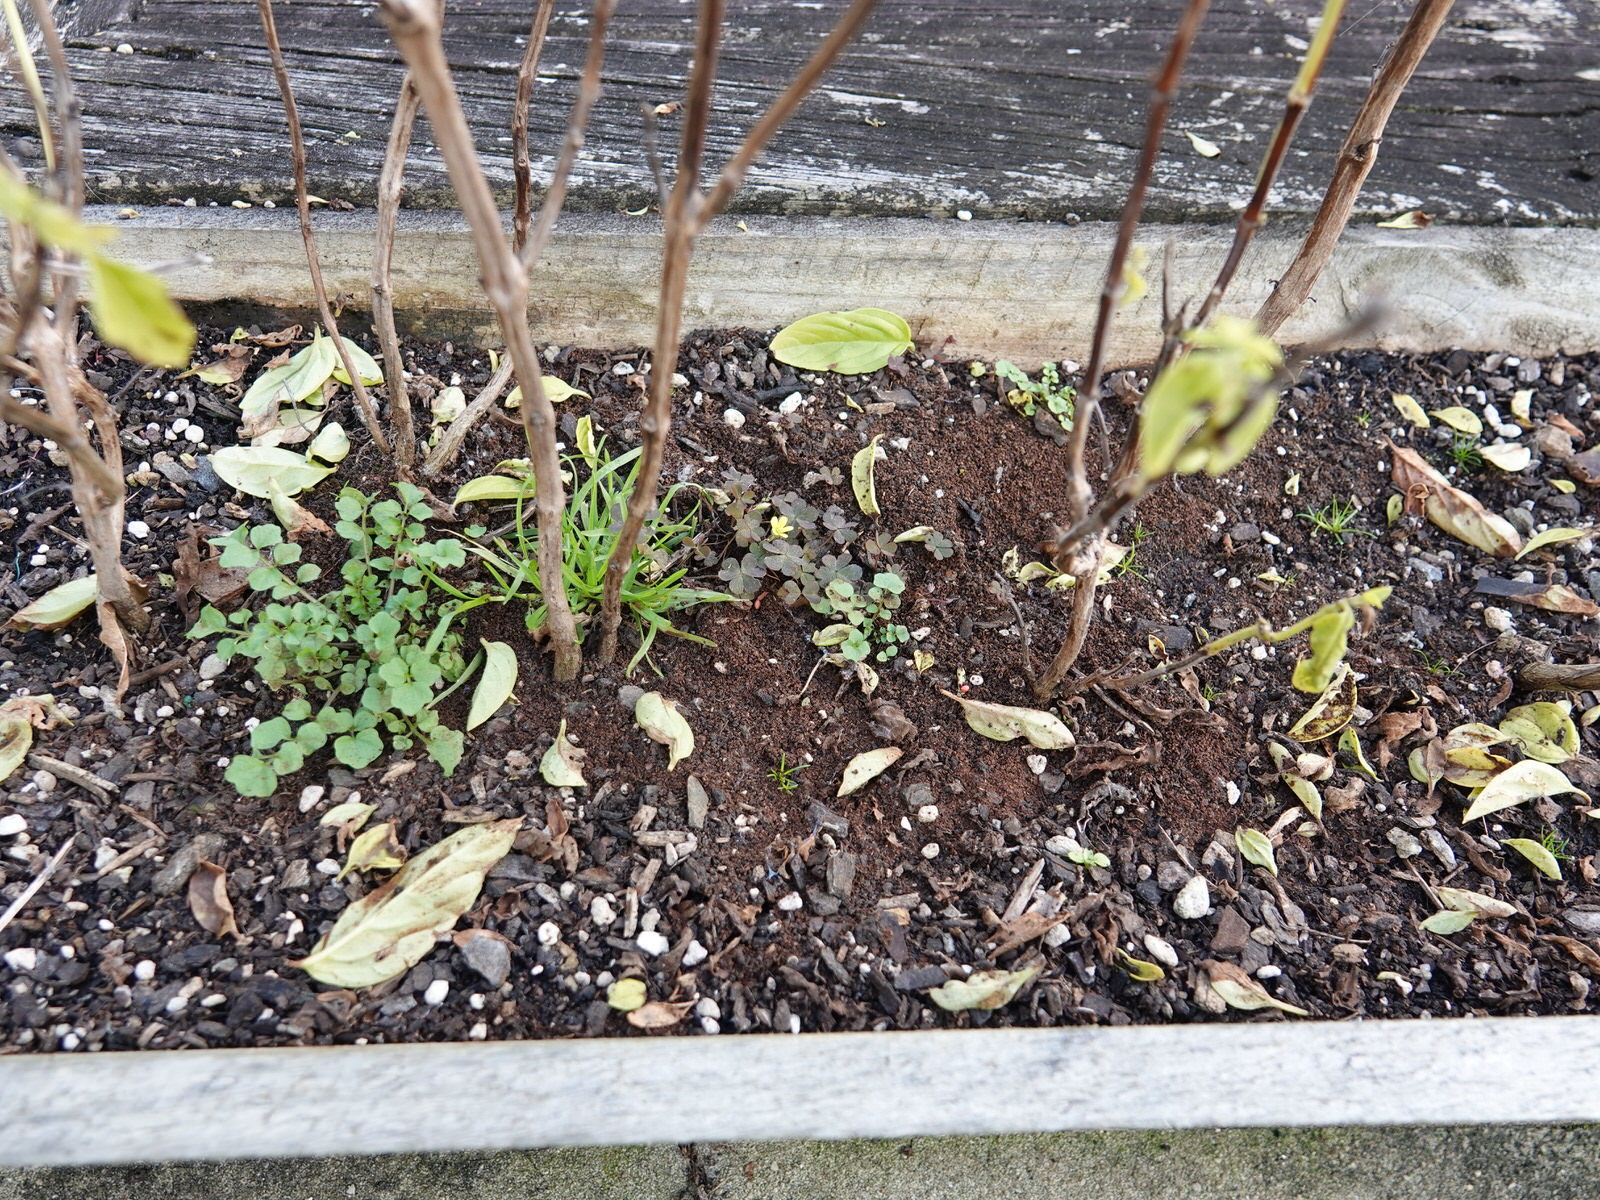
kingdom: Plantae
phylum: Tracheophyta
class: Magnoliopsida
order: Oxalidales
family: Oxalidaceae
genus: Oxalis
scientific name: Oxalis corniculata
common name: Procumbent yellow-sorrel
